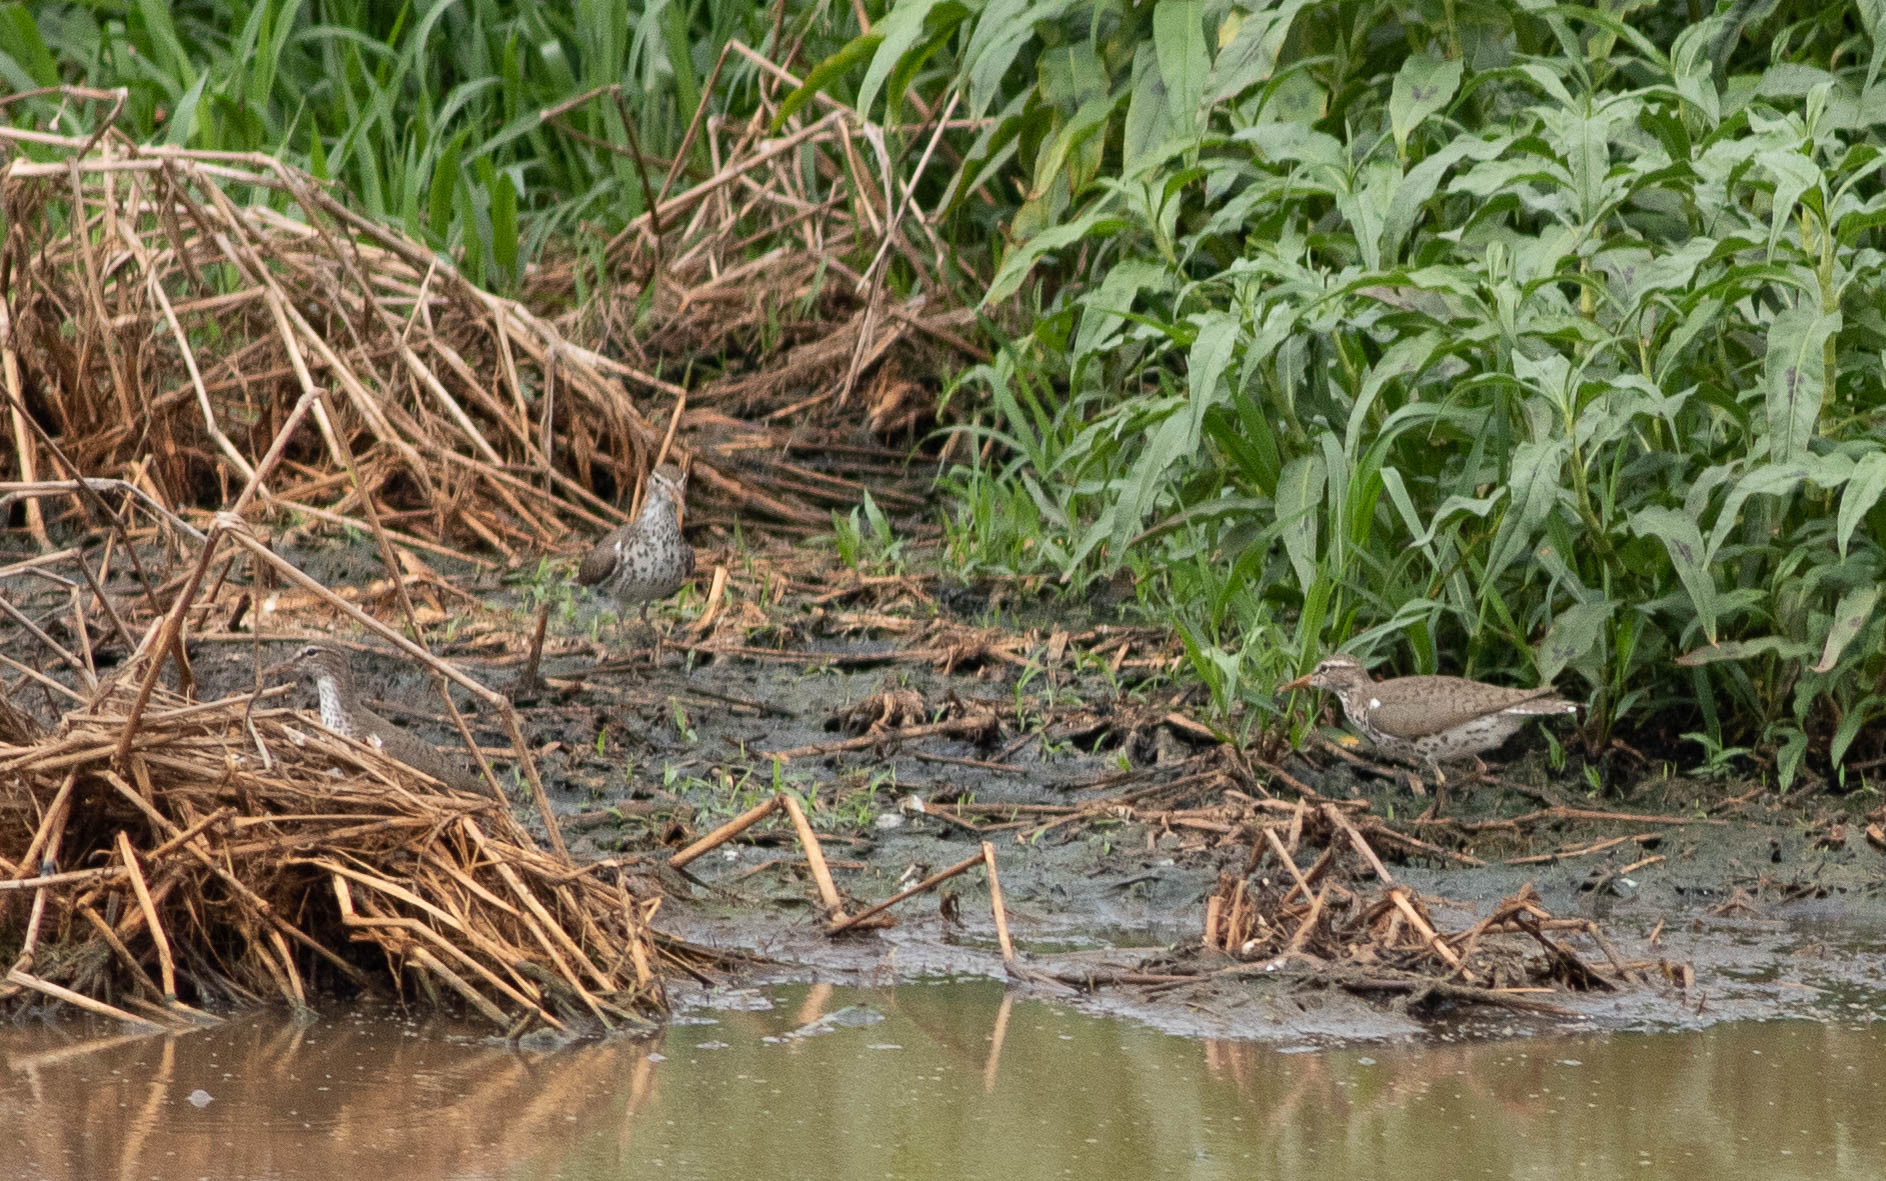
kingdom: Animalia
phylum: Chordata
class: Aves
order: Charadriiformes
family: Scolopacidae
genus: Actitis
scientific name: Actitis macularius
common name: Spotted sandpiper
